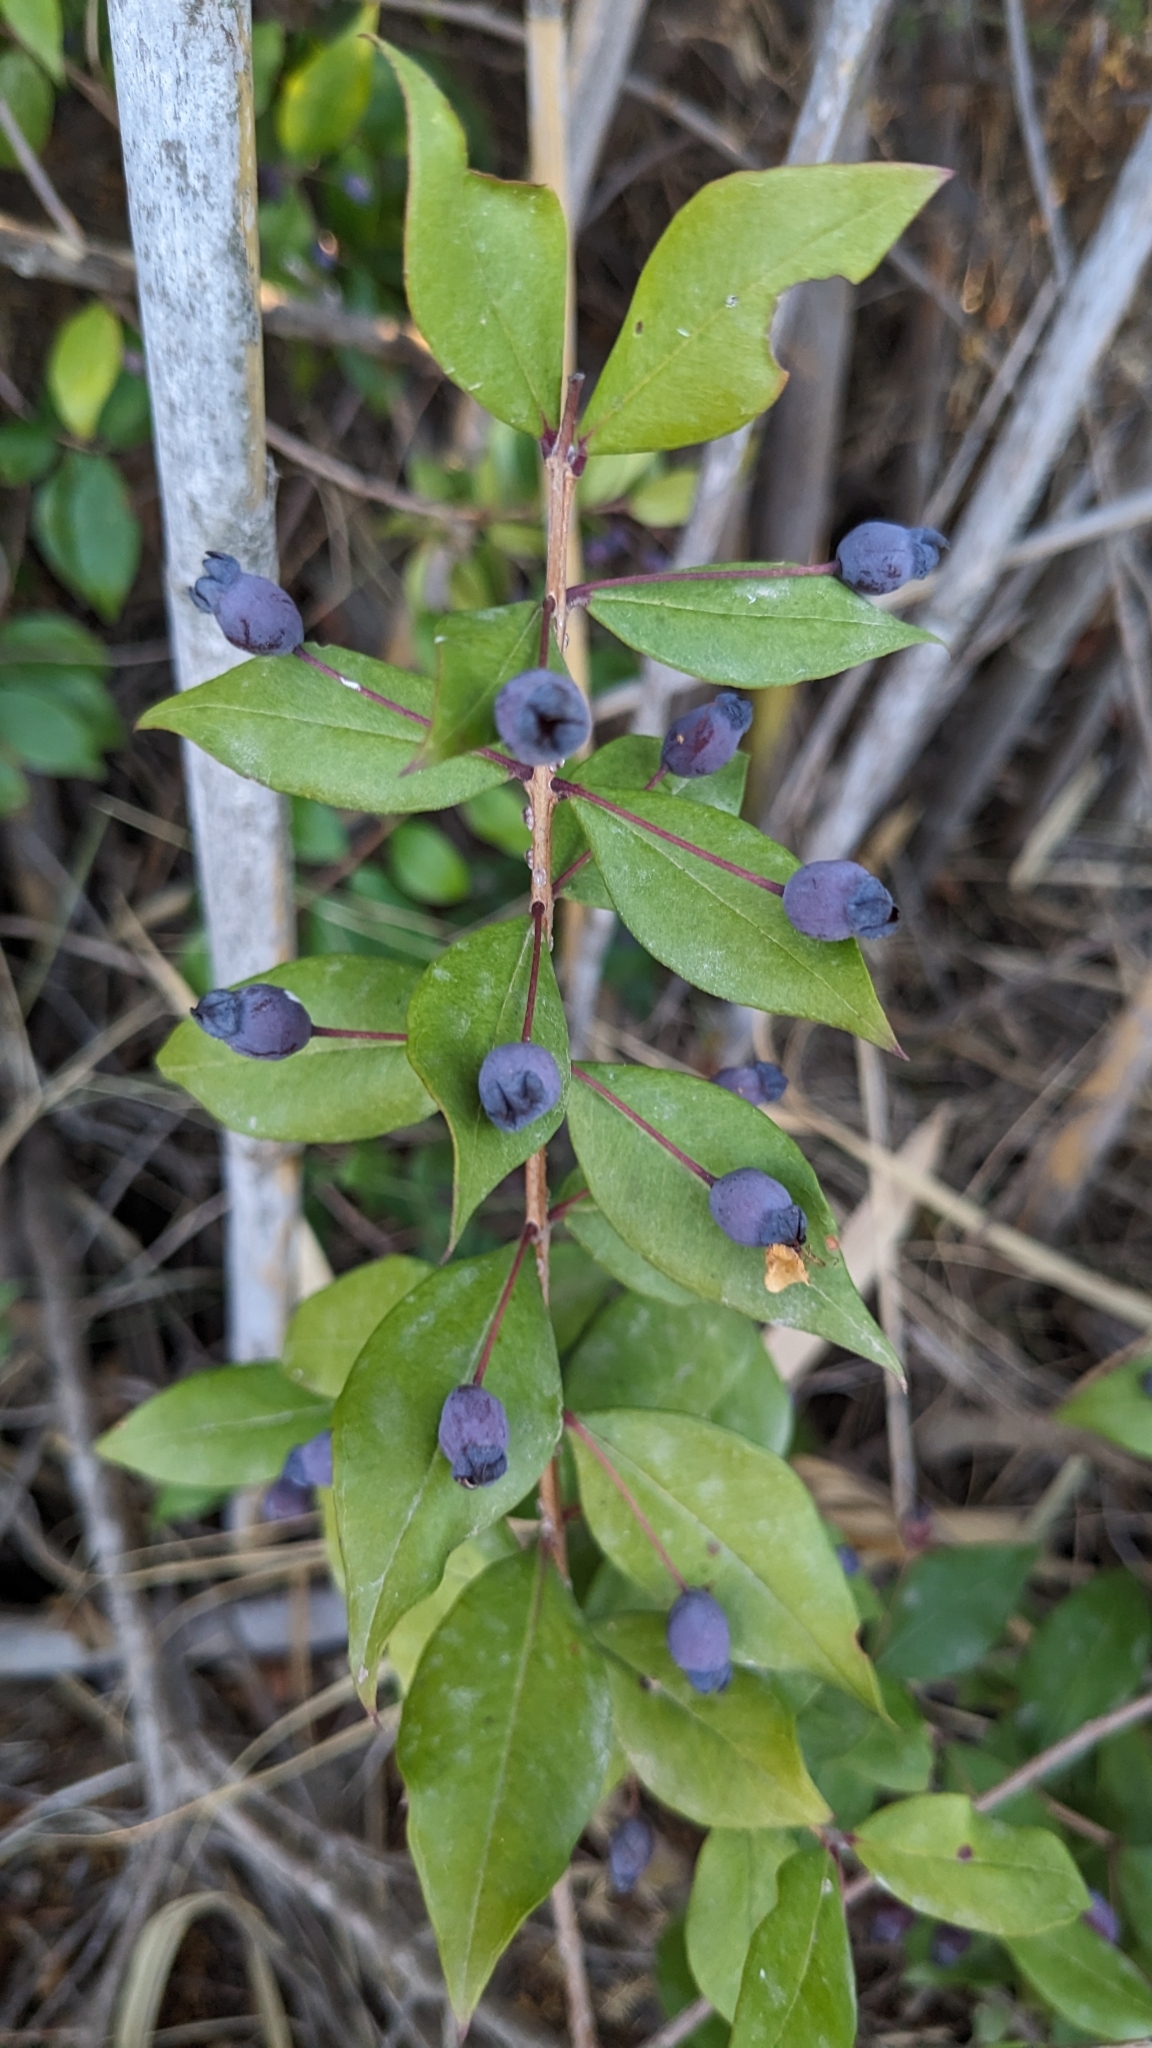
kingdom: Plantae
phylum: Tracheophyta
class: Magnoliopsida
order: Myrtales
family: Myrtaceae
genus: Myrtus
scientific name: Myrtus communis
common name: Myrtle
